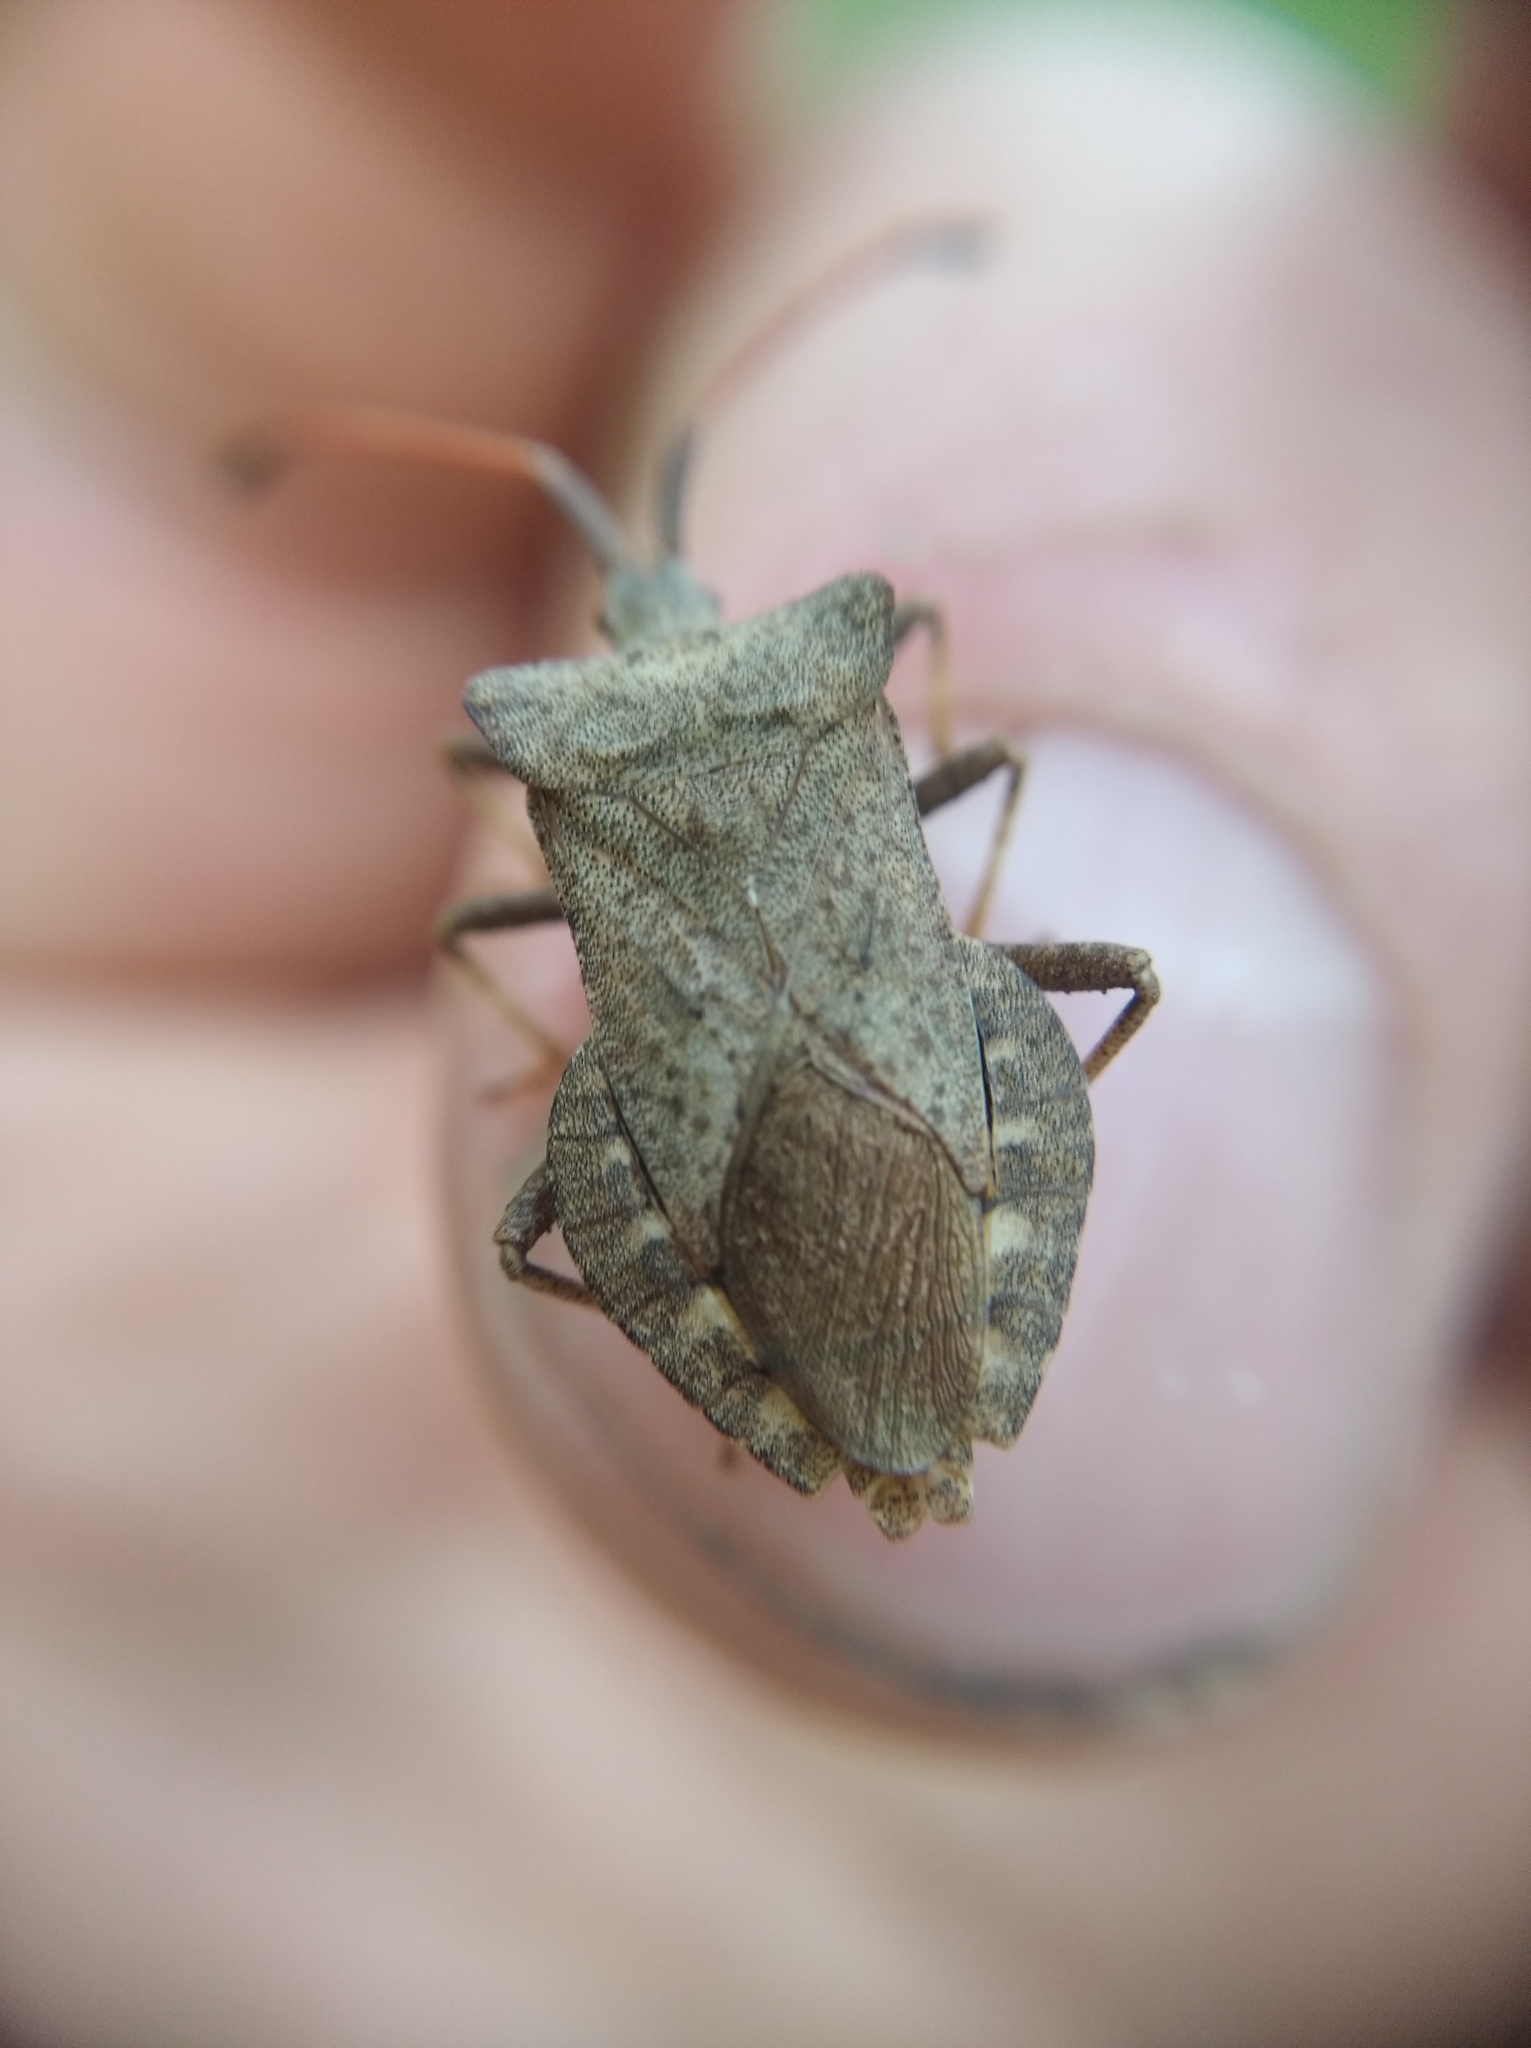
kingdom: Animalia
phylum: Arthropoda
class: Insecta
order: Hemiptera
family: Coreidae
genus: Coreus
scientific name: Coreus marginatus
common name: Dock bug
